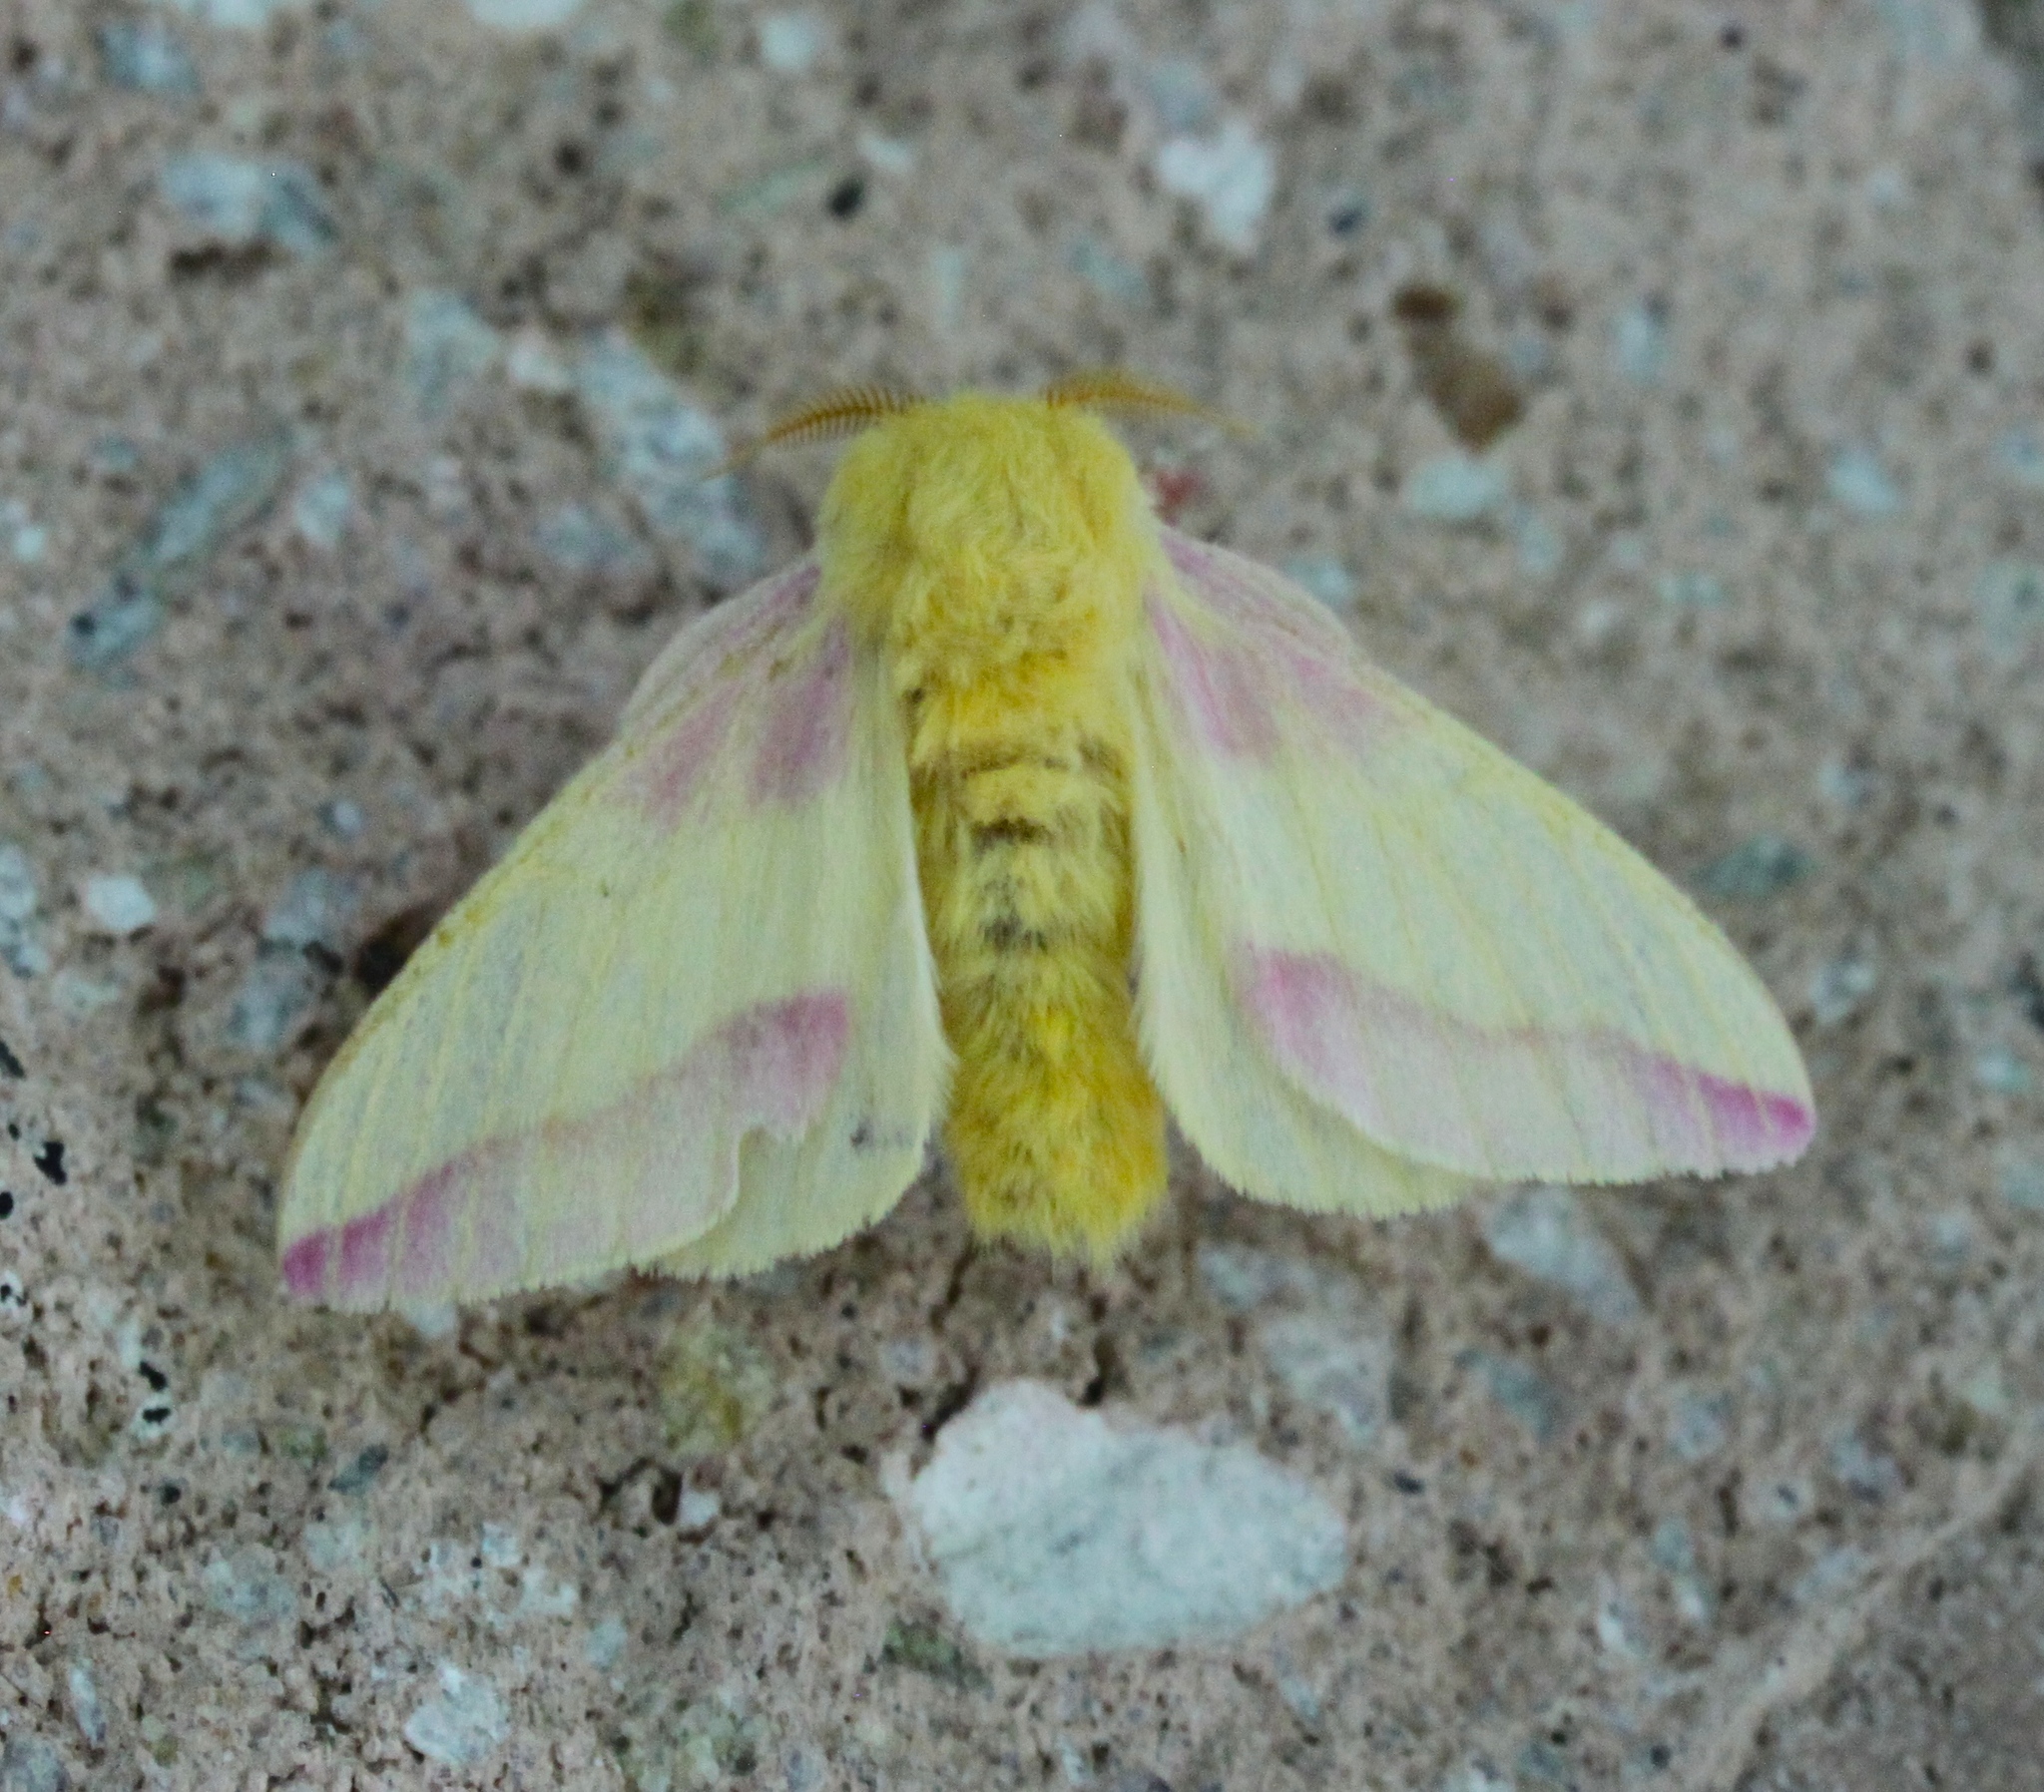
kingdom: Animalia
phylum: Arthropoda
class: Insecta
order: Lepidoptera
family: Saturniidae
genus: Dryocampa
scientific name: Dryocampa rubicunda
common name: Rosy maple moth
